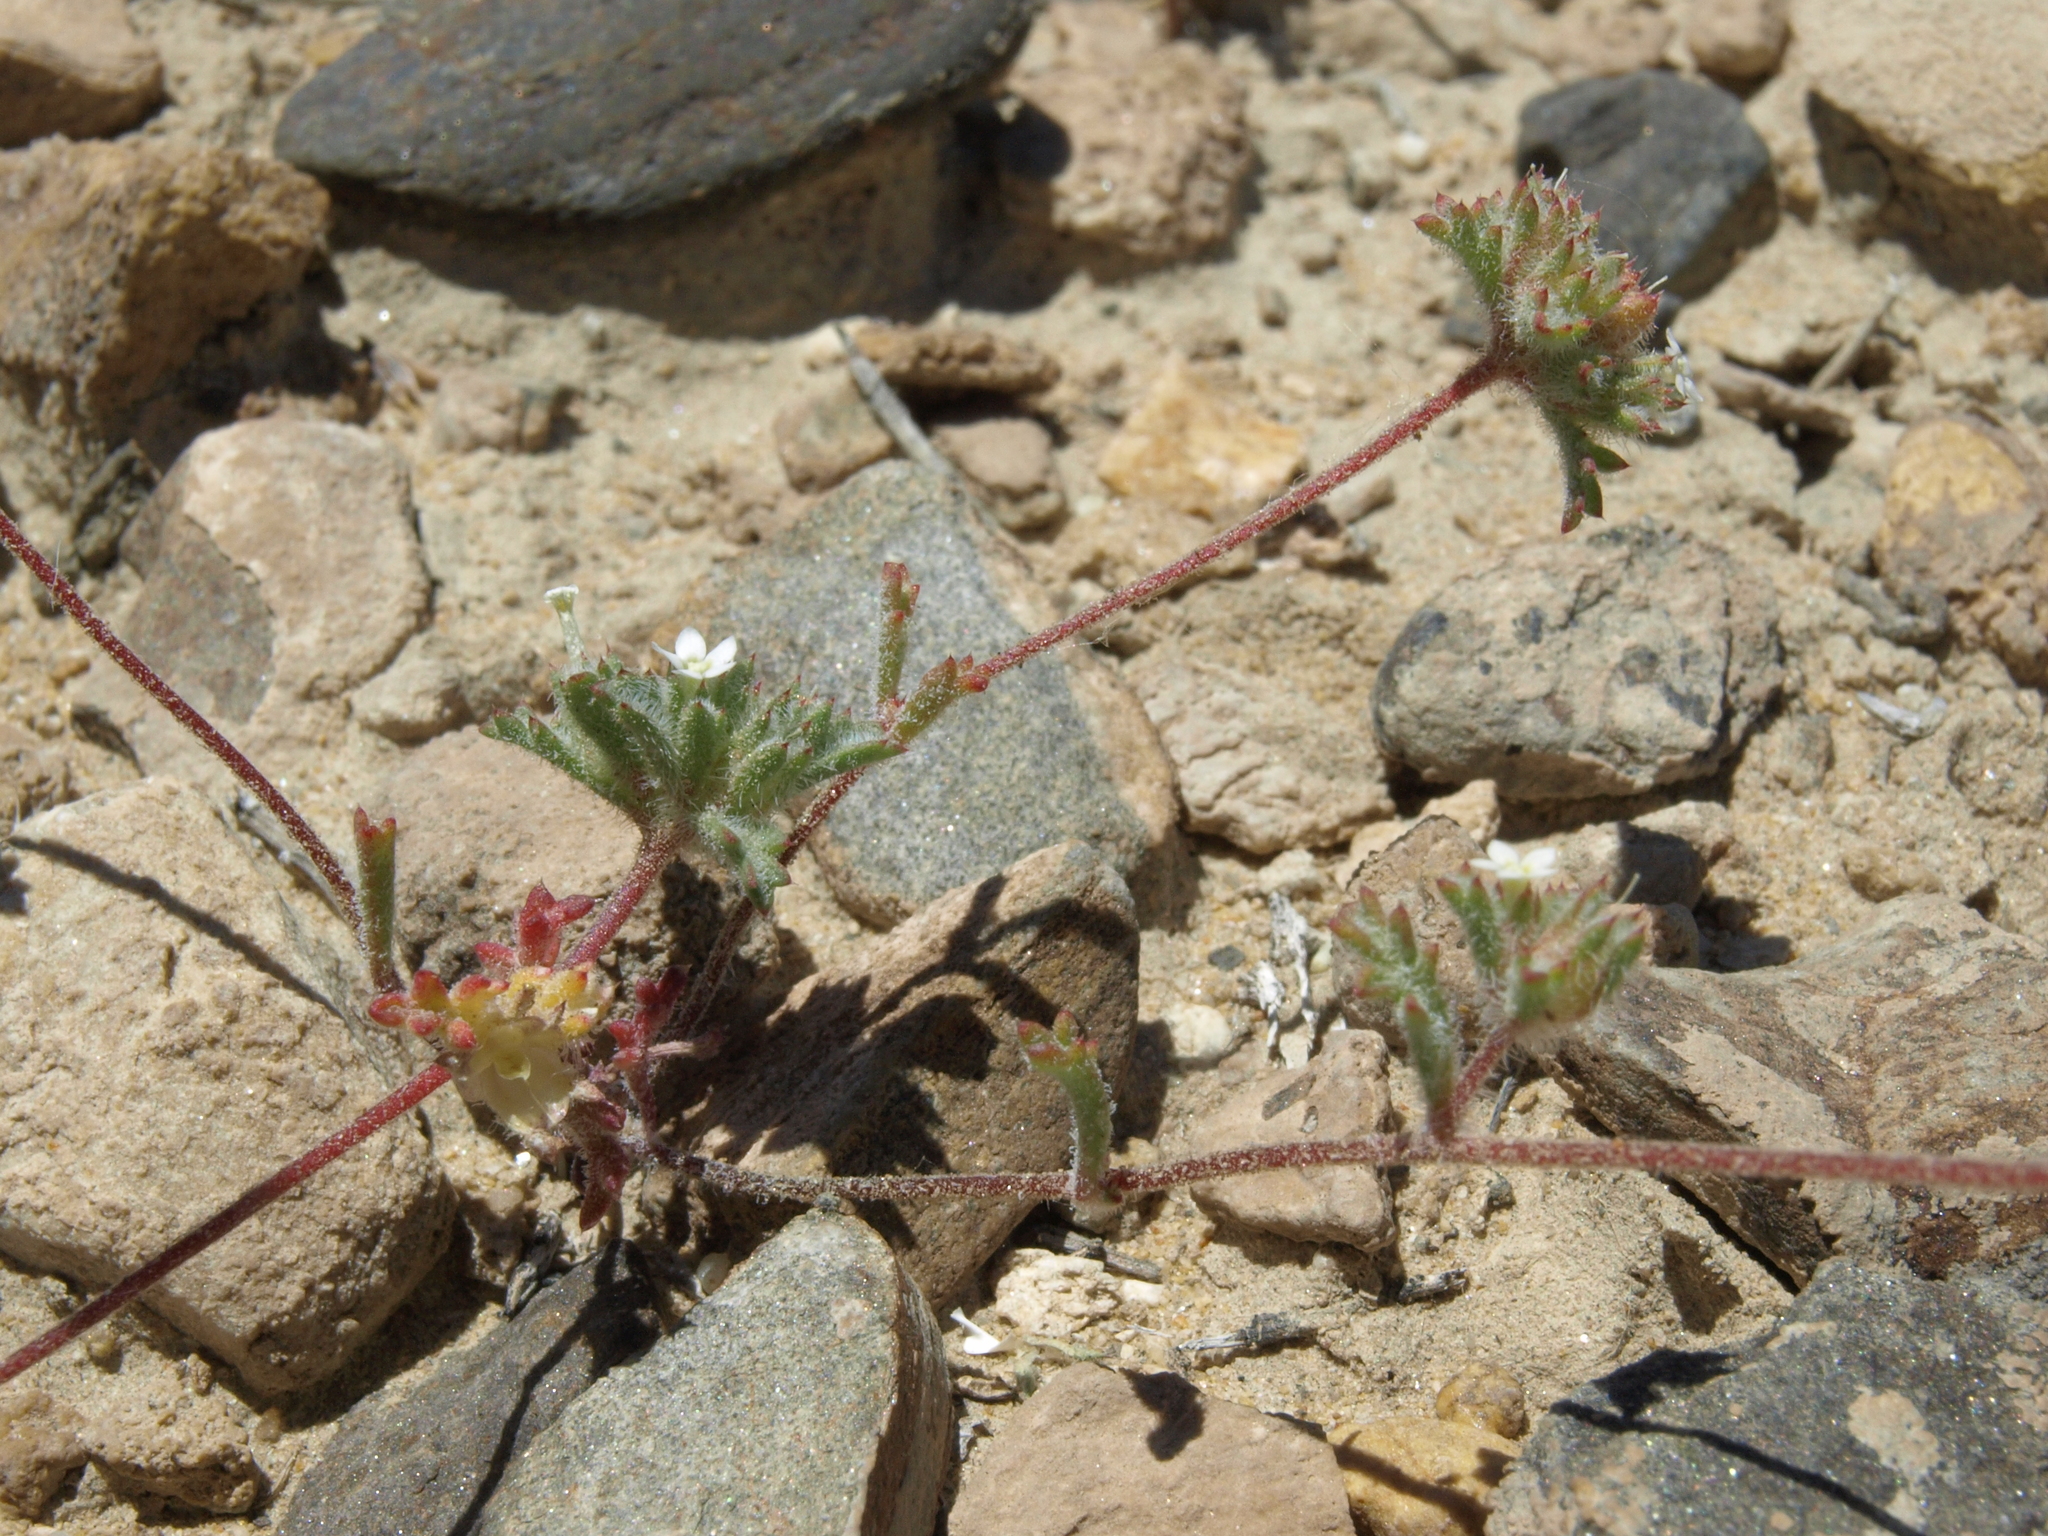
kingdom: Plantae
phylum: Tracheophyta
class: Magnoliopsida
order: Ericales
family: Polemoniaceae
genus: Ipomopsis
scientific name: Ipomopsis polycladon
